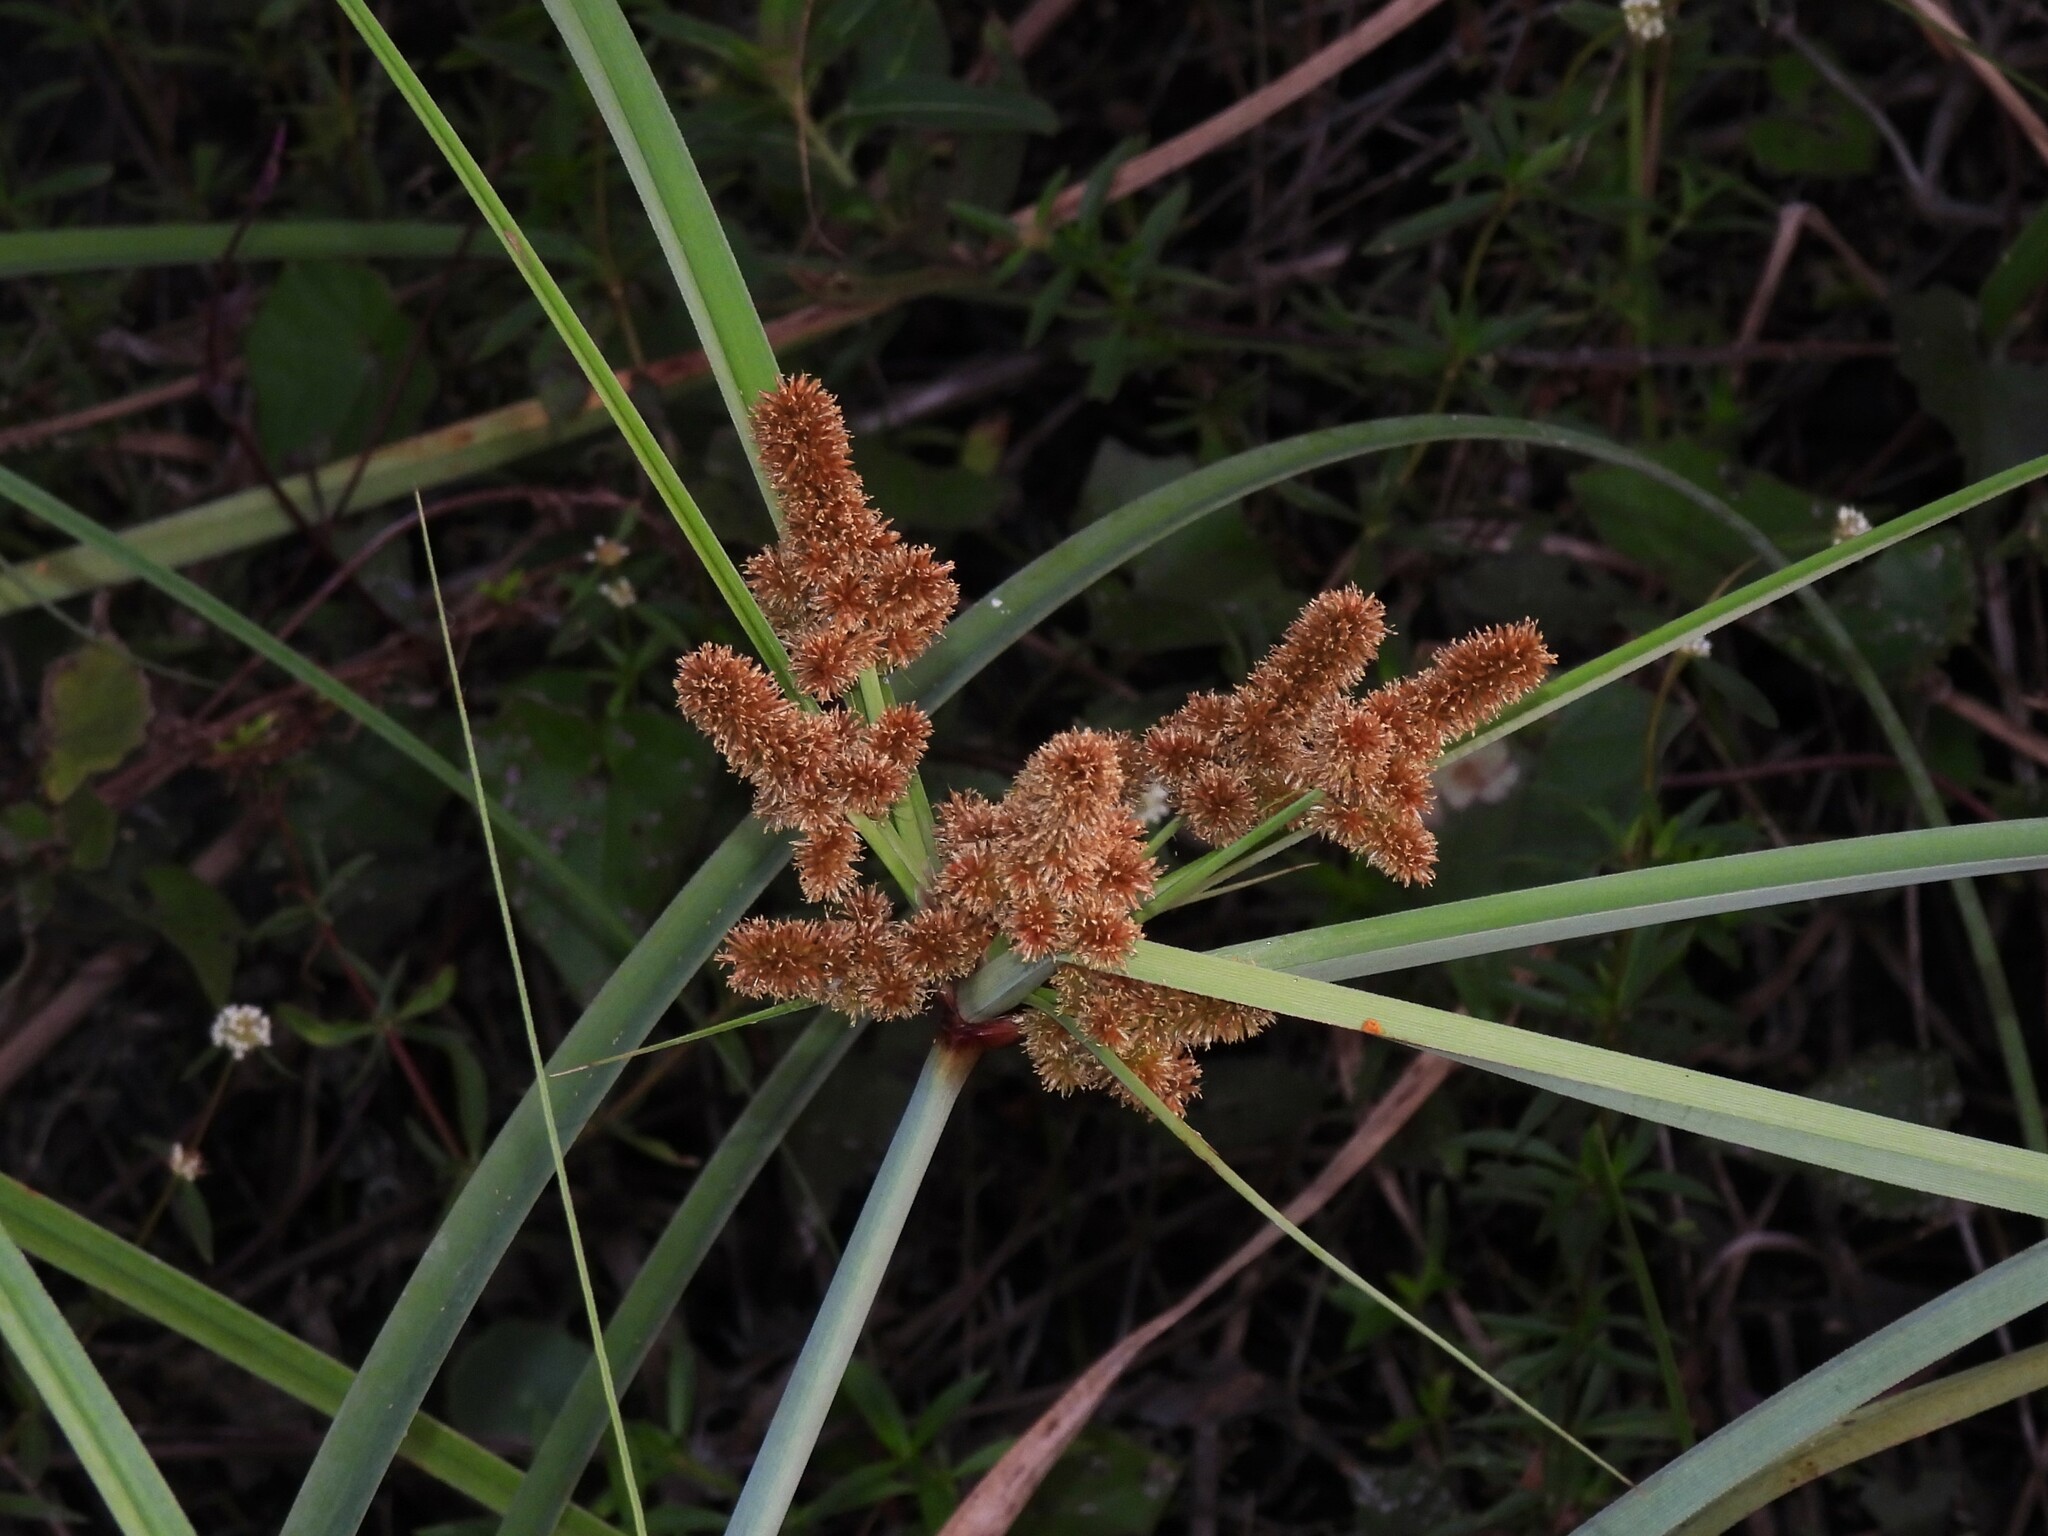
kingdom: Plantae
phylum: Tracheophyta
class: Liliopsida
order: Poales
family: Cyperaceae
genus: Cyperus
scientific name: Cyperus ligularis
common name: Swamp flat sedge
